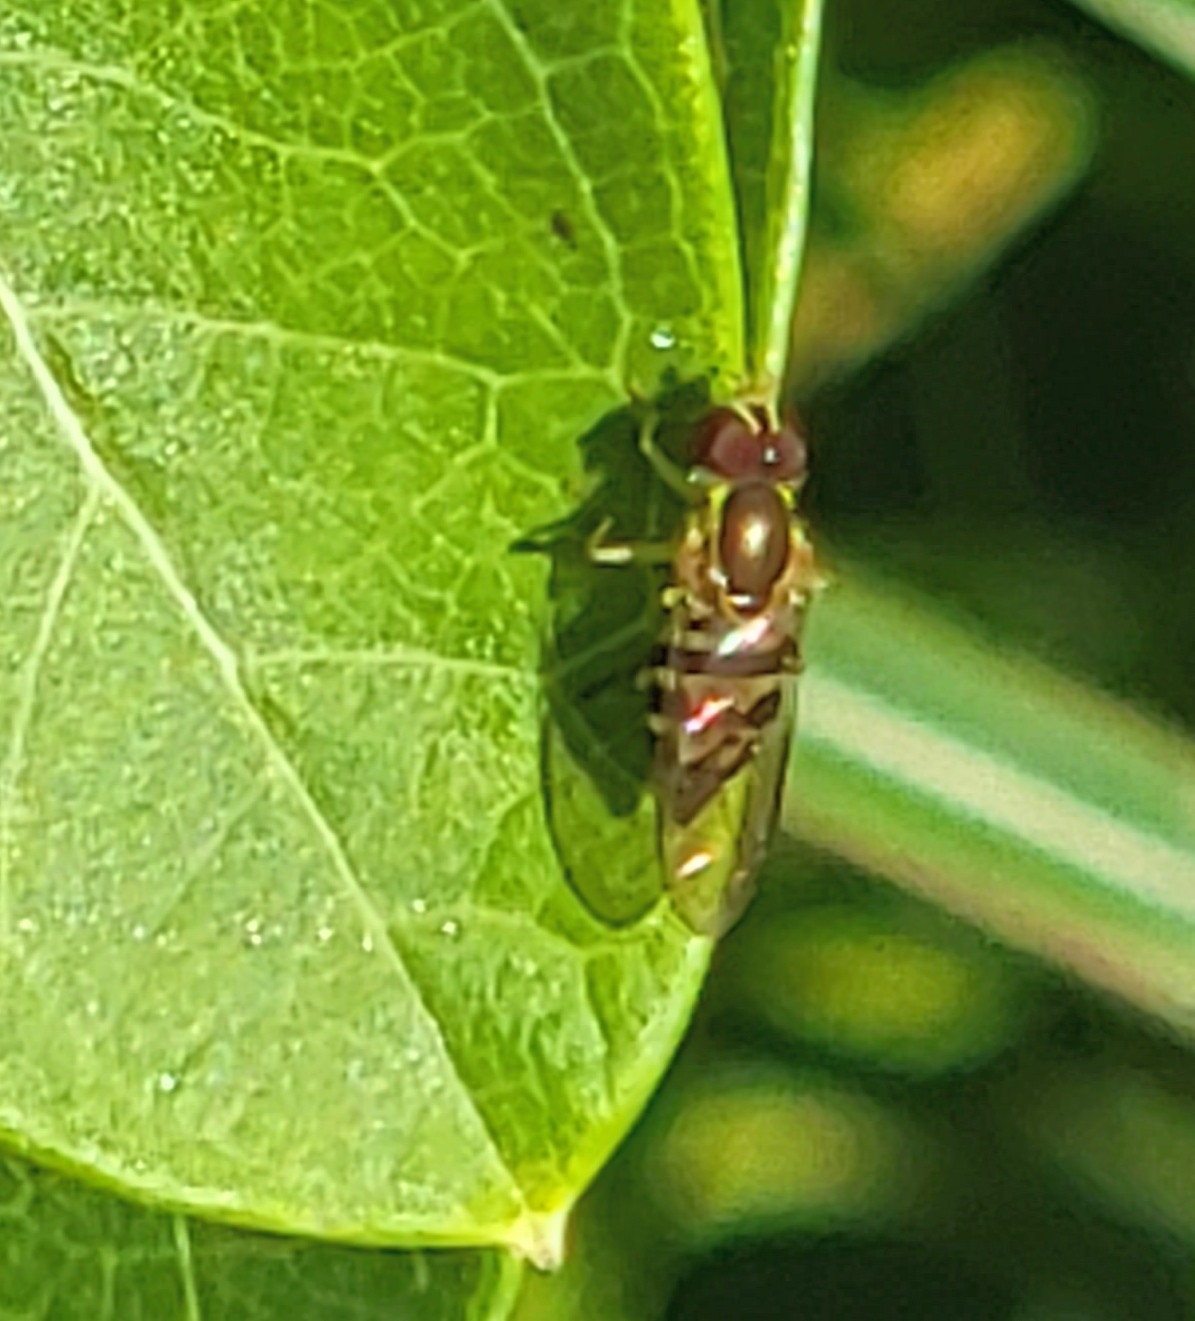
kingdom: Animalia
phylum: Arthropoda
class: Insecta
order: Diptera
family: Syrphidae
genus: Toxomerus
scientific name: Toxomerus geminatus
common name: Eastern calligrapher
